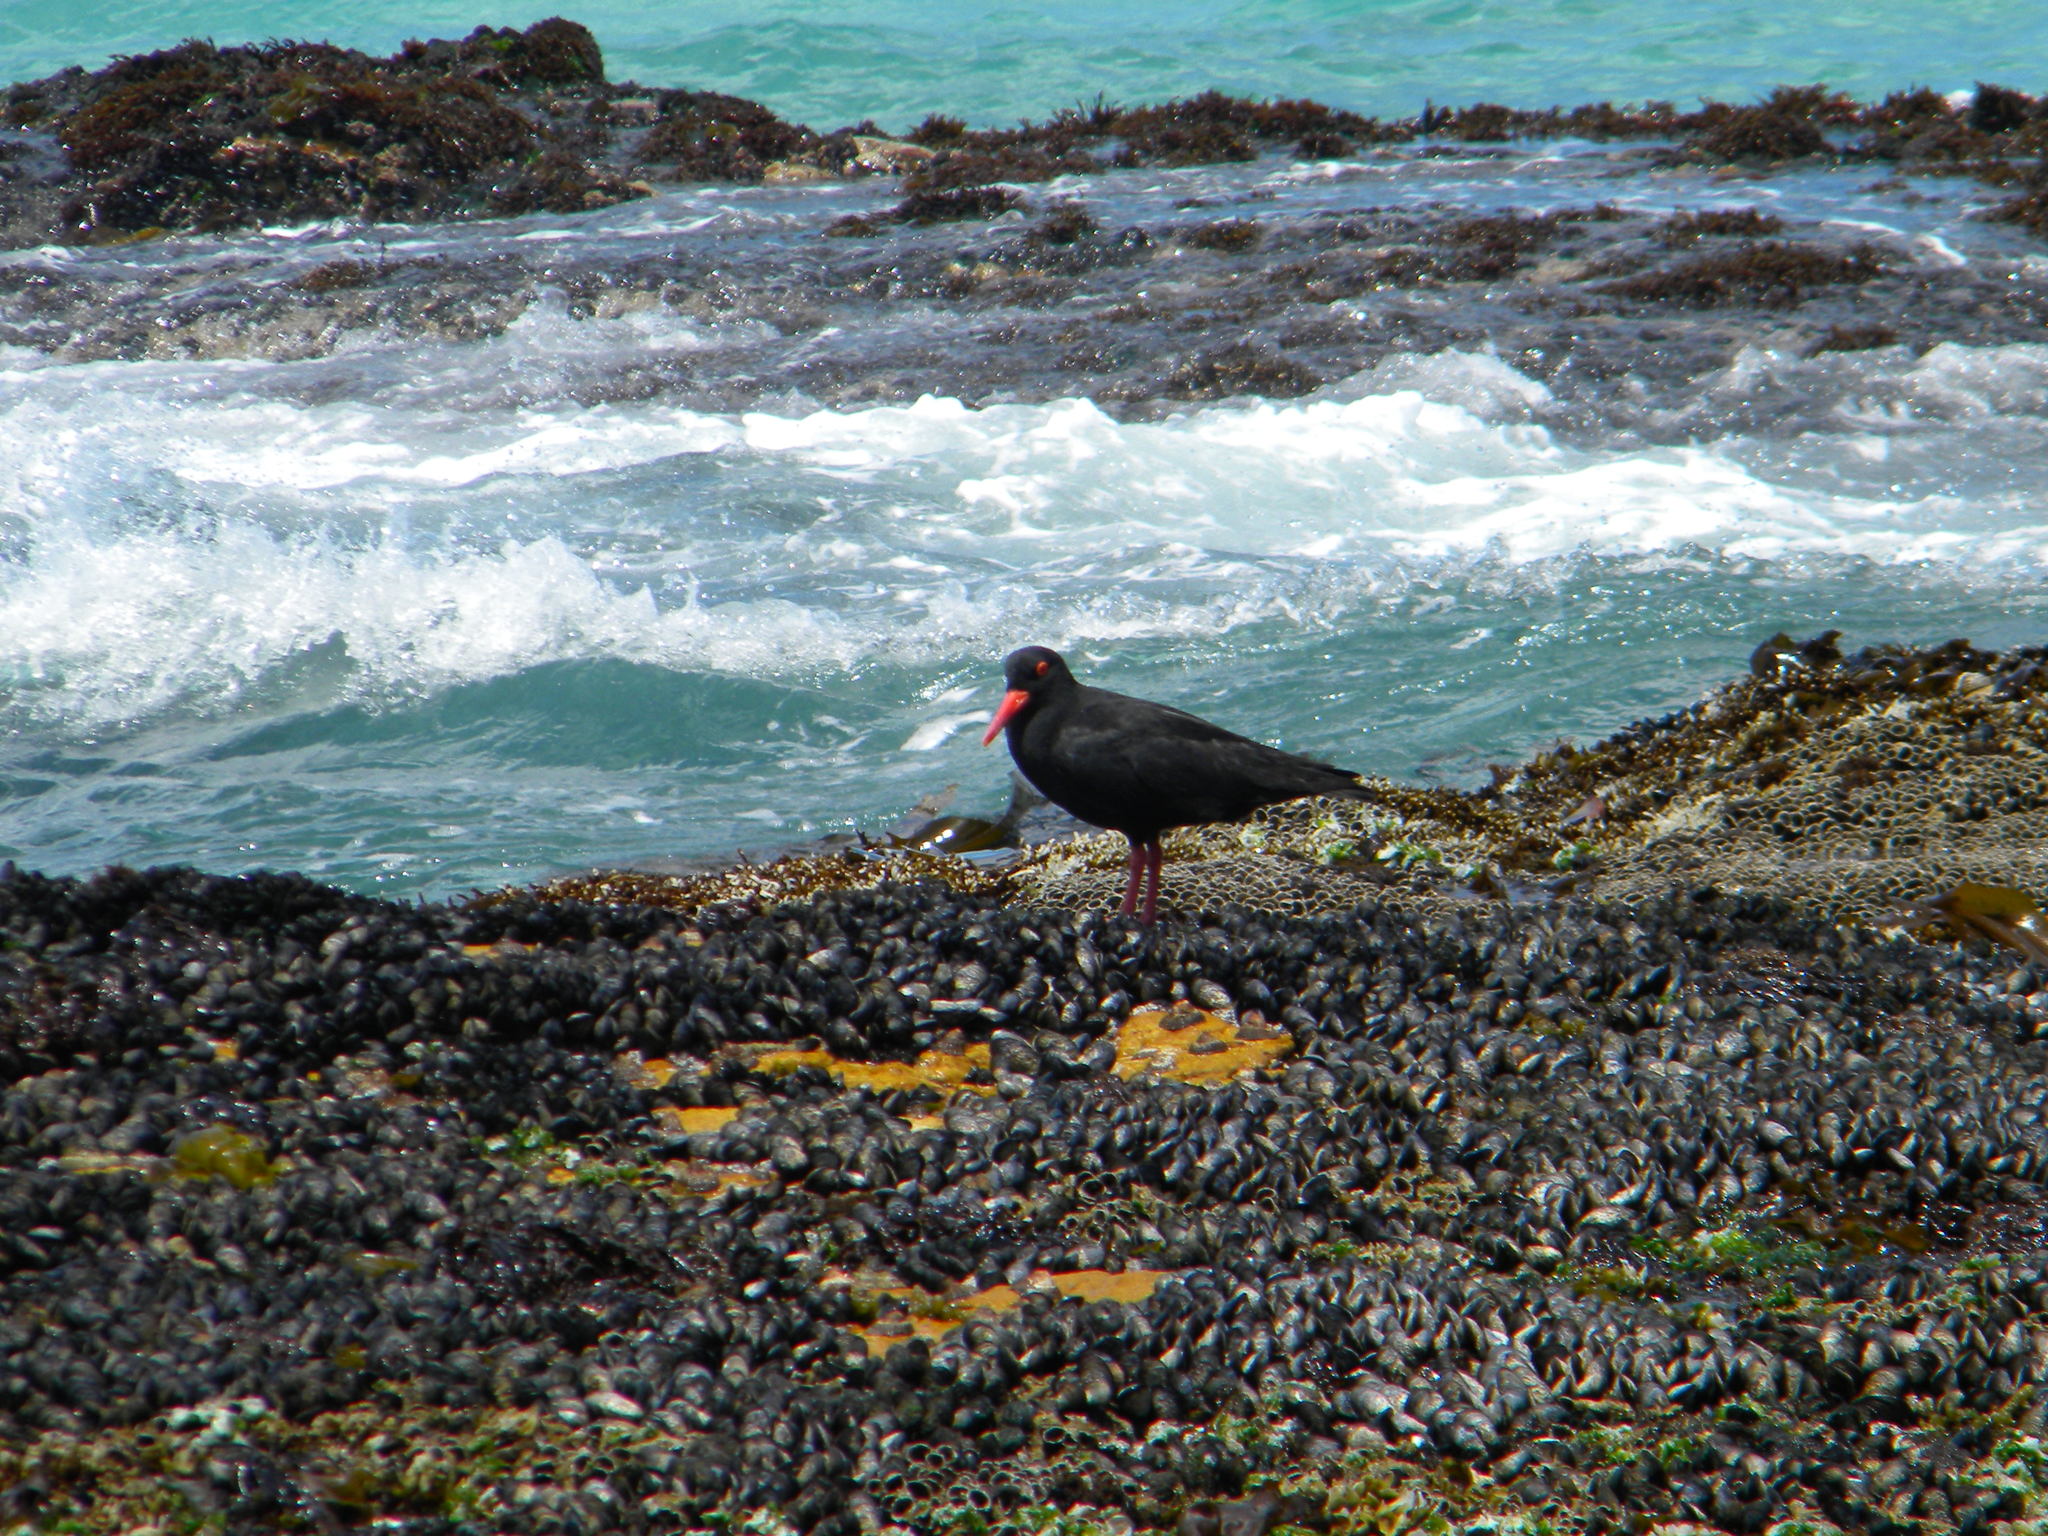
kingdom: Animalia
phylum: Chordata
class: Aves
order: Charadriiformes
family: Haematopodidae
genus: Haematopus
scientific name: Haematopus moquini
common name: African oystercatcher
